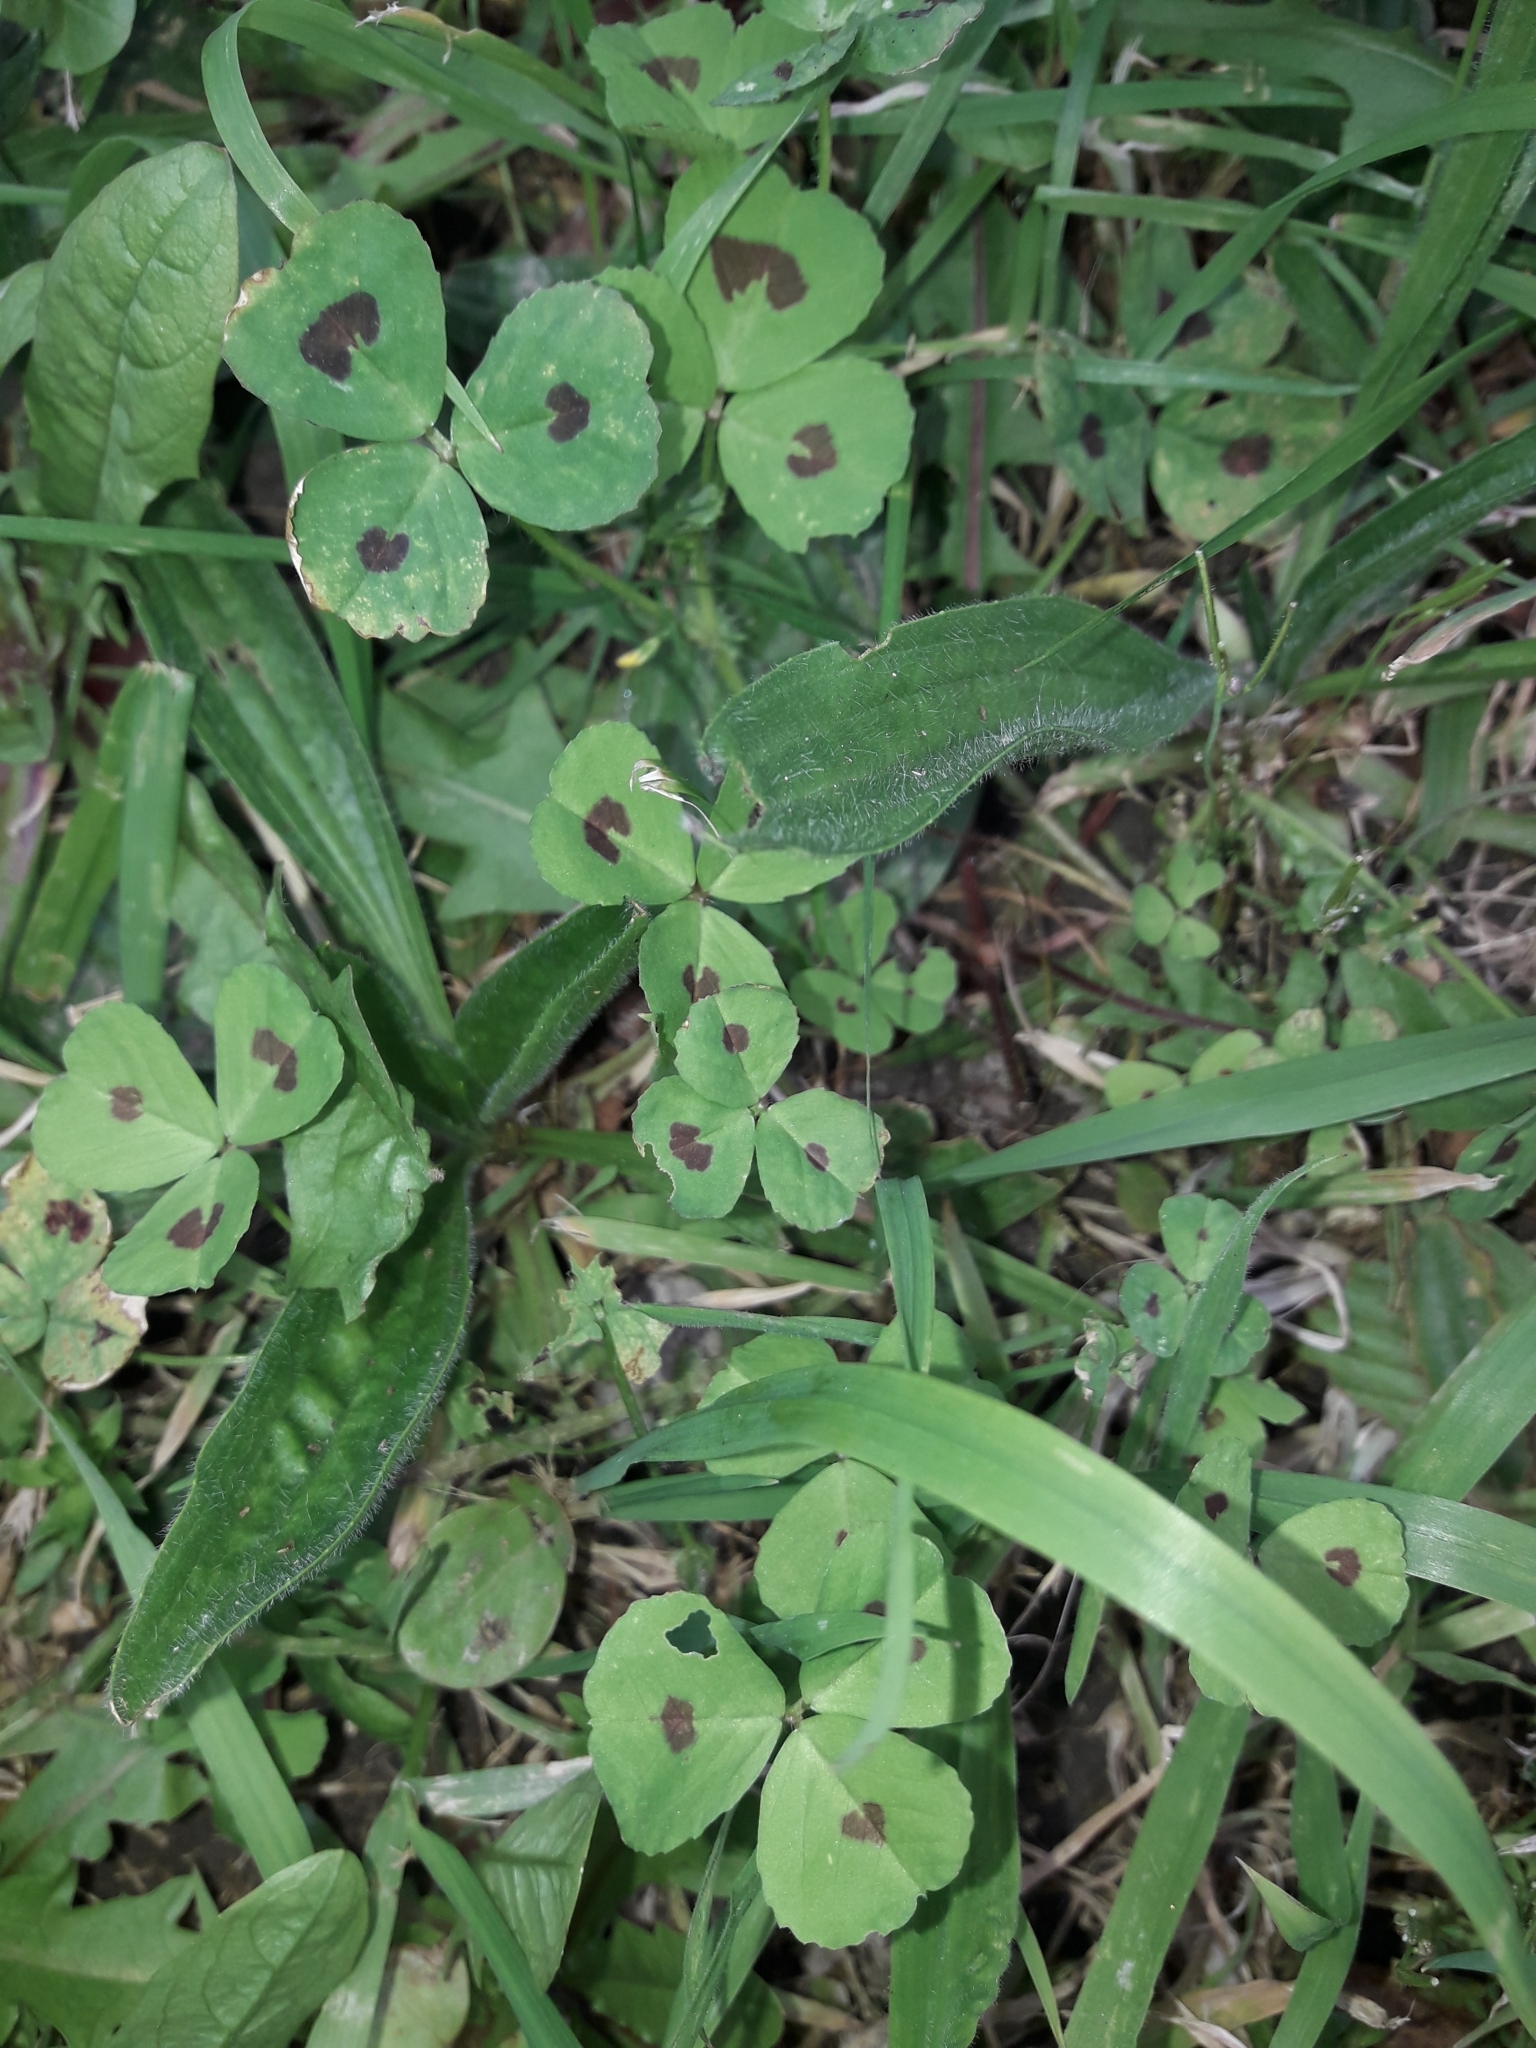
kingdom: Plantae
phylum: Tracheophyta
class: Magnoliopsida
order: Fabales
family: Fabaceae
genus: Medicago
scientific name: Medicago arabica
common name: Spotted medick
